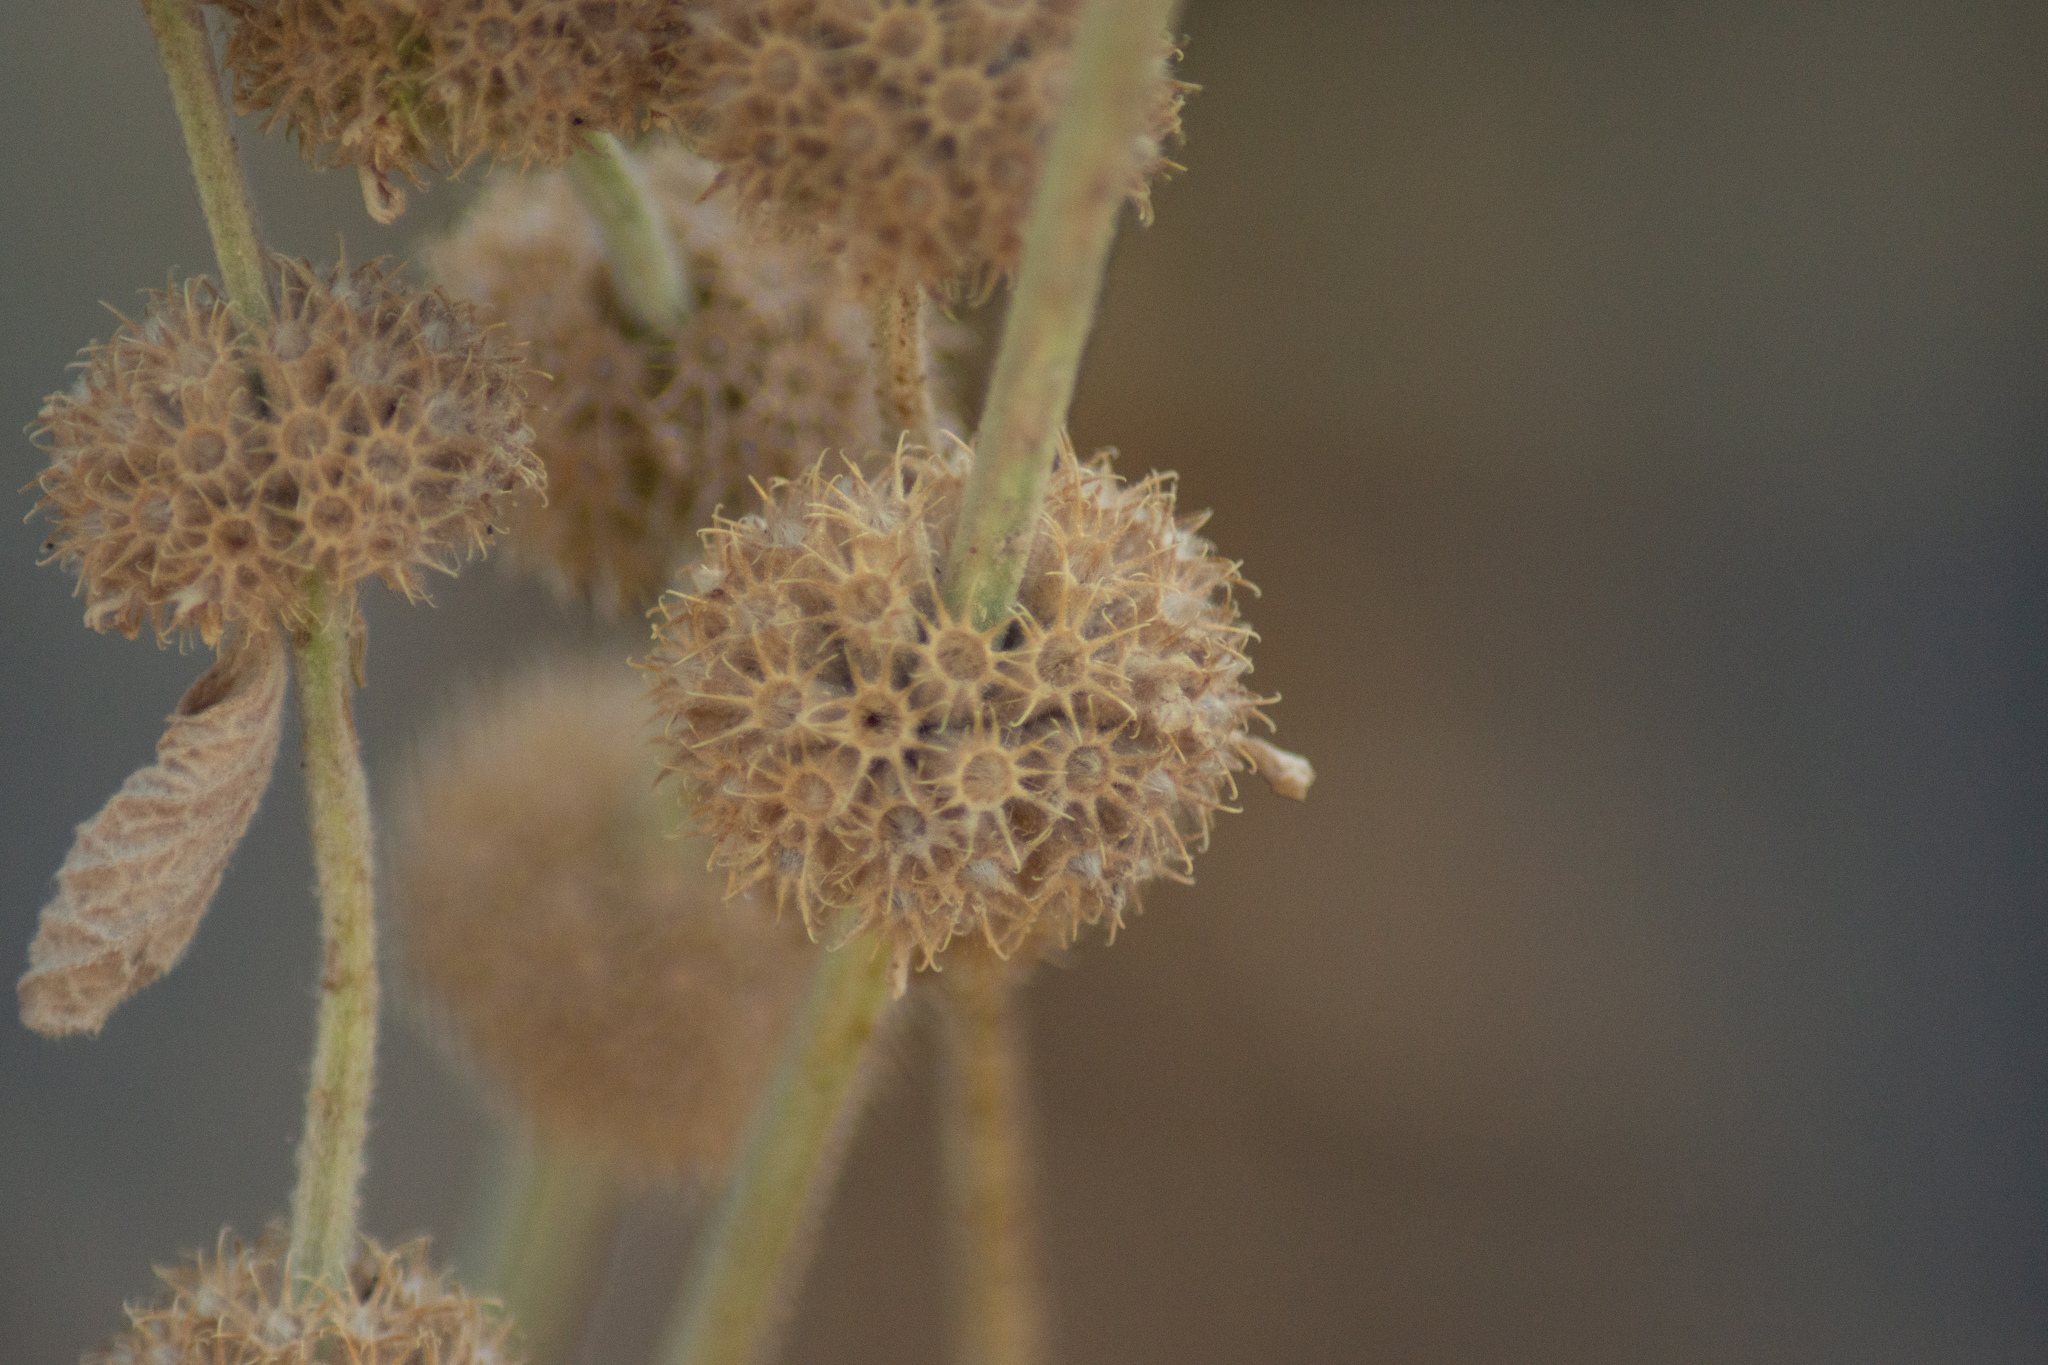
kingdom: Plantae
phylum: Tracheophyta
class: Magnoliopsida
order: Lamiales
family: Lamiaceae
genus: Marrubium
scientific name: Marrubium vulgare
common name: Horehound
